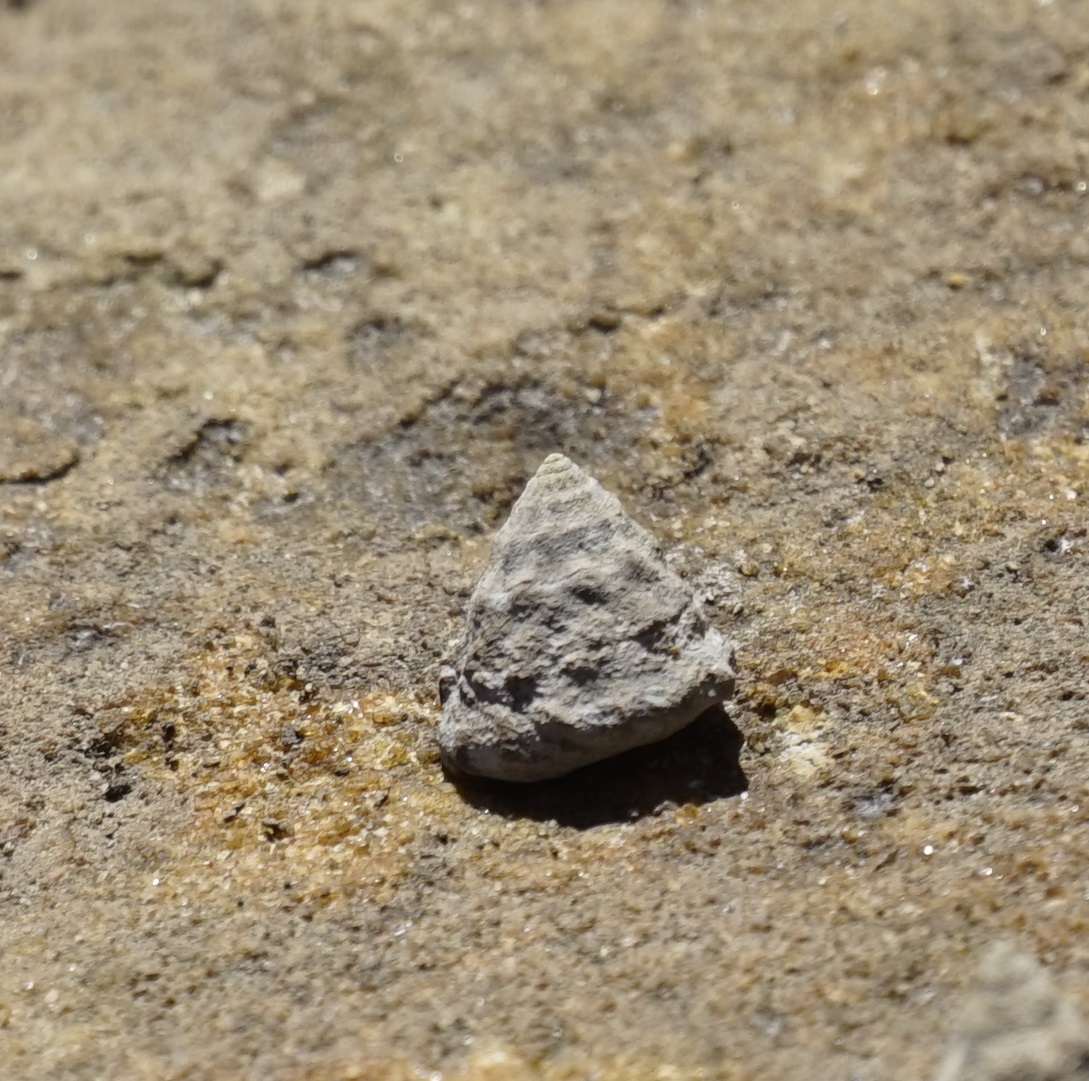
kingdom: Animalia
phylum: Mollusca
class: Gastropoda
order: Littorinimorpha
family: Littorinidae
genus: Bembicium
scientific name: Bembicium auratum
